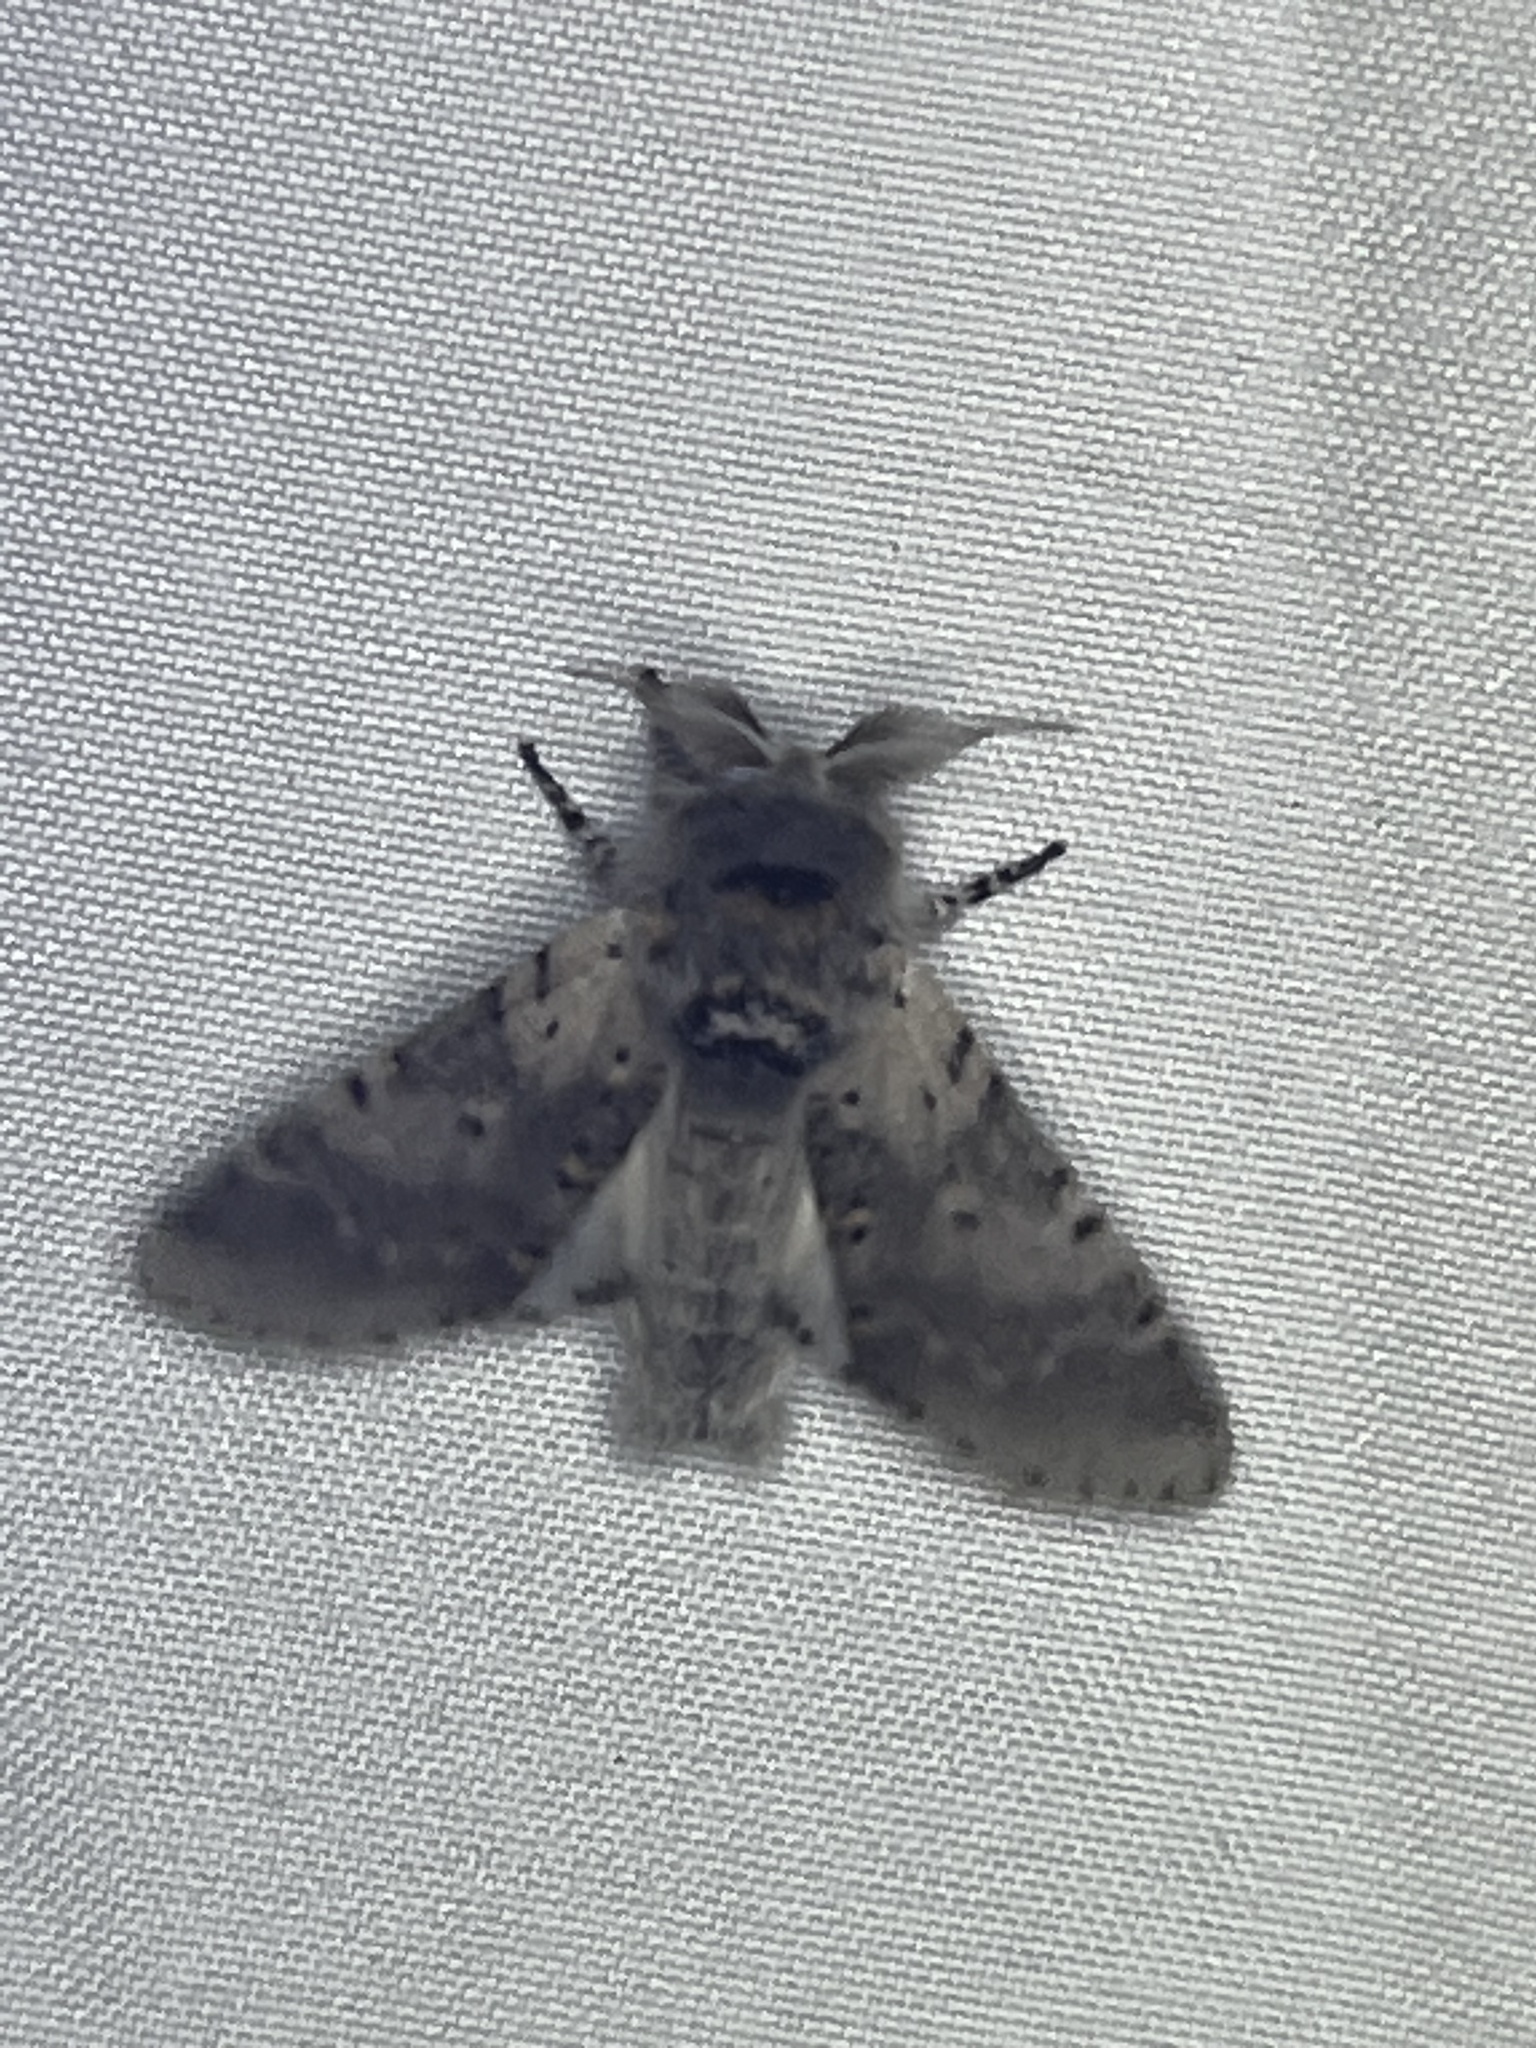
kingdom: Animalia
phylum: Arthropoda
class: Insecta
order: Lepidoptera
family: Notodontidae
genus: Furcula
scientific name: Furcula cinerea
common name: Gray furcula
